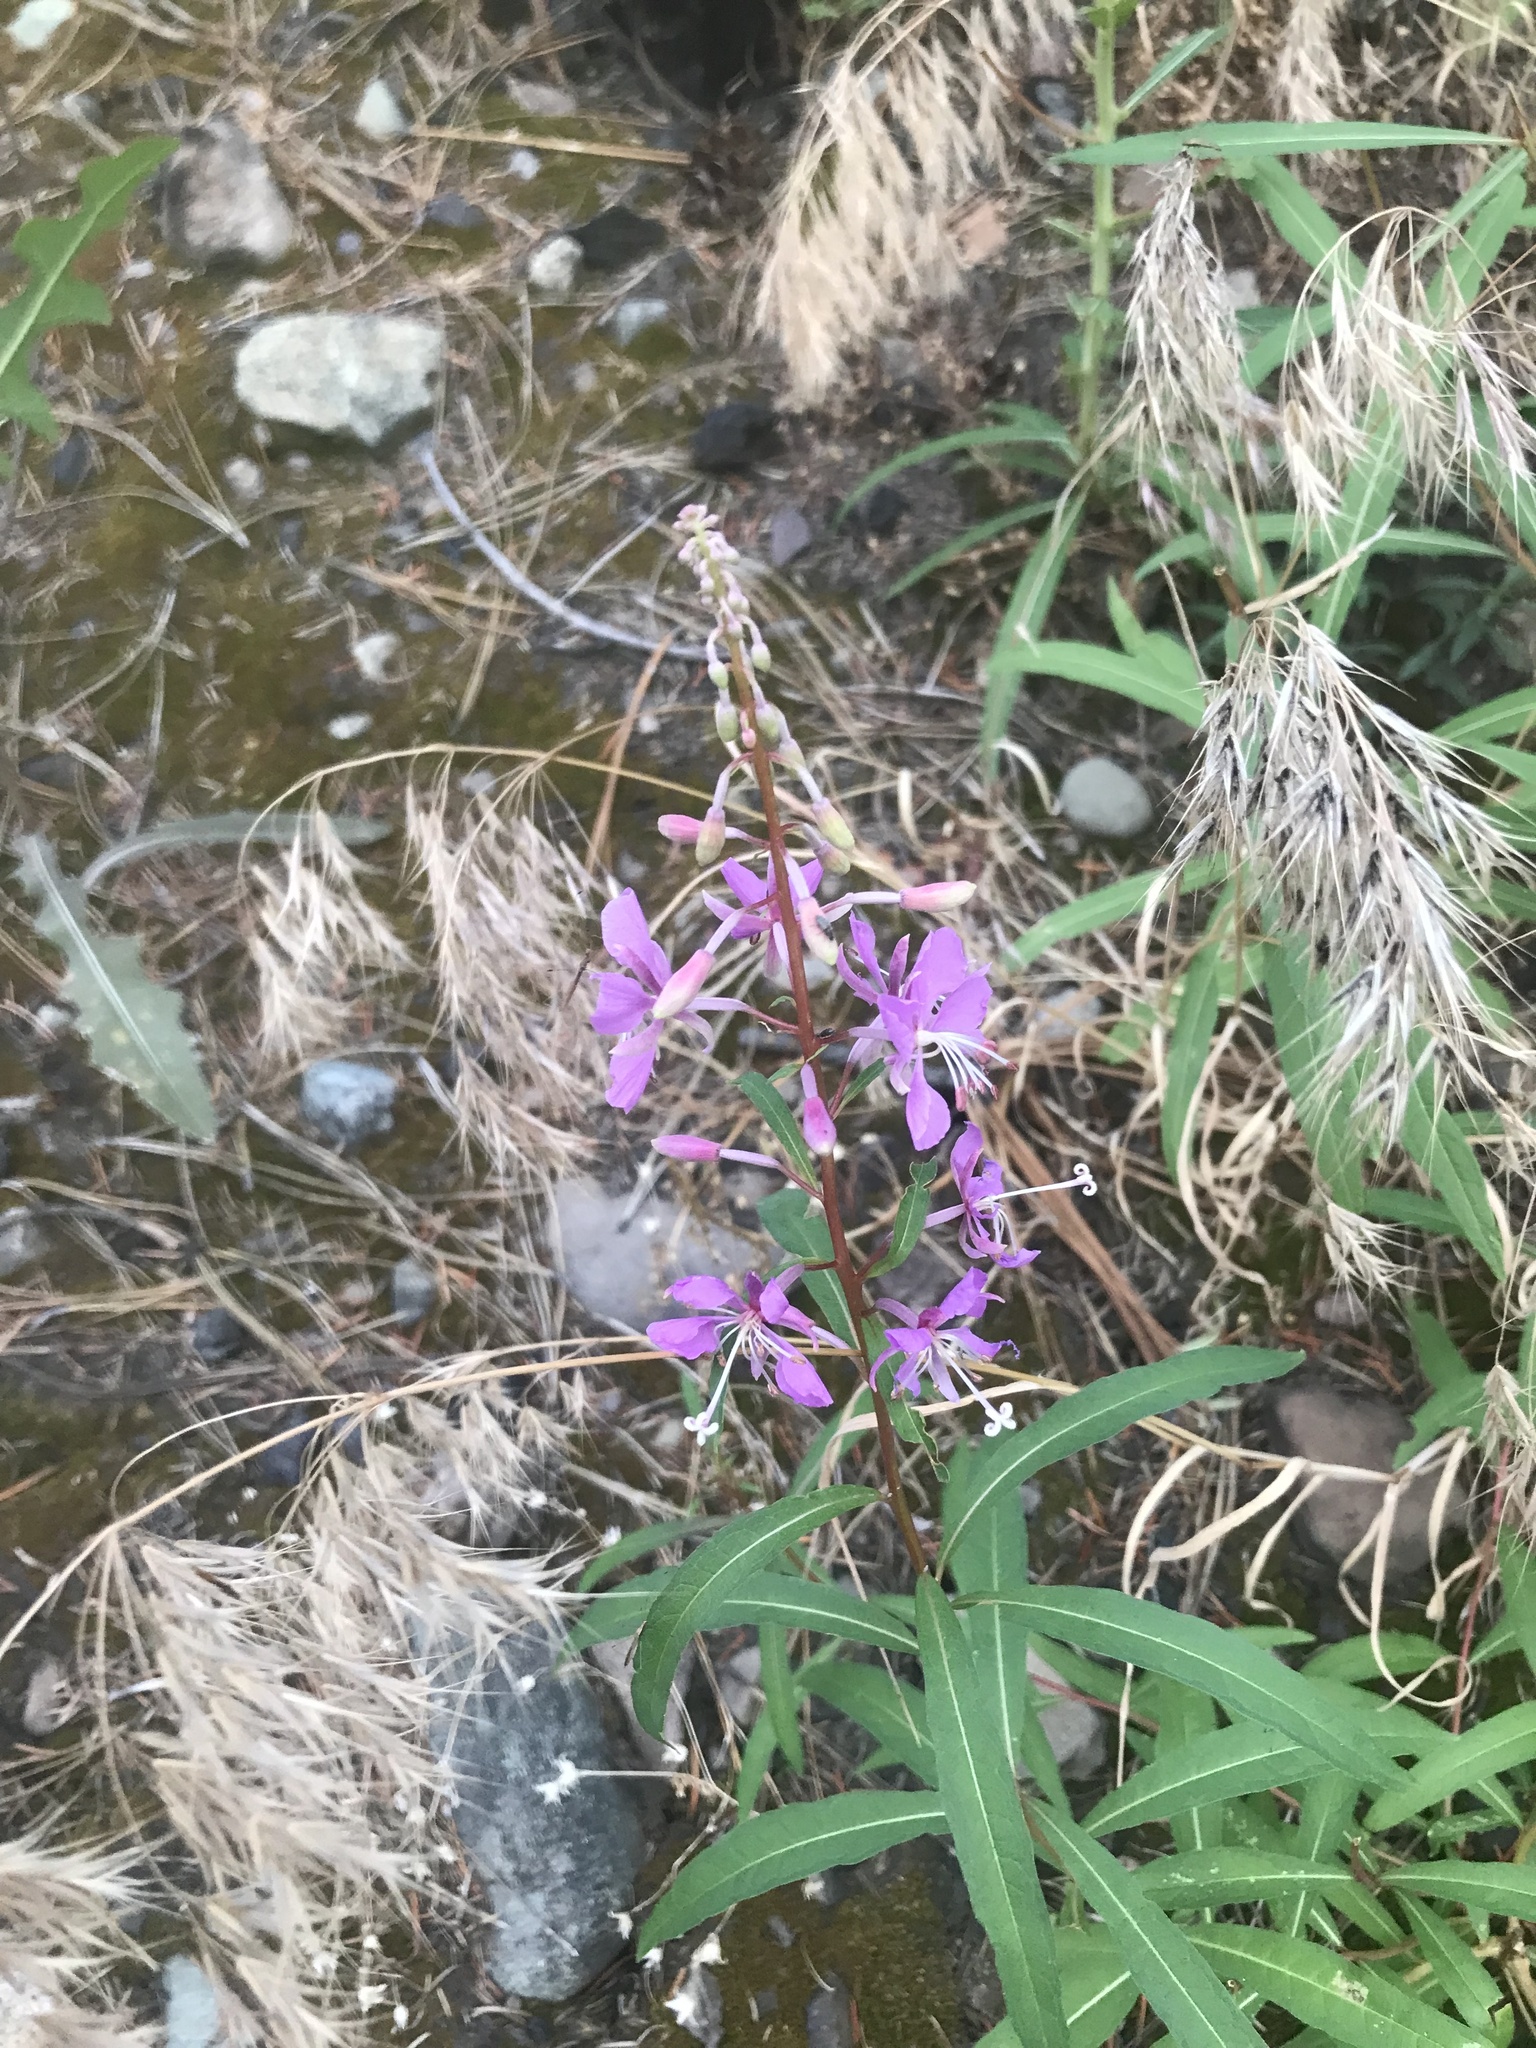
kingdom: Plantae
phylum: Tracheophyta
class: Magnoliopsida
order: Myrtales
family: Onagraceae
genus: Chamaenerion
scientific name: Chamaenerion angustifolium
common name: Fireweed
